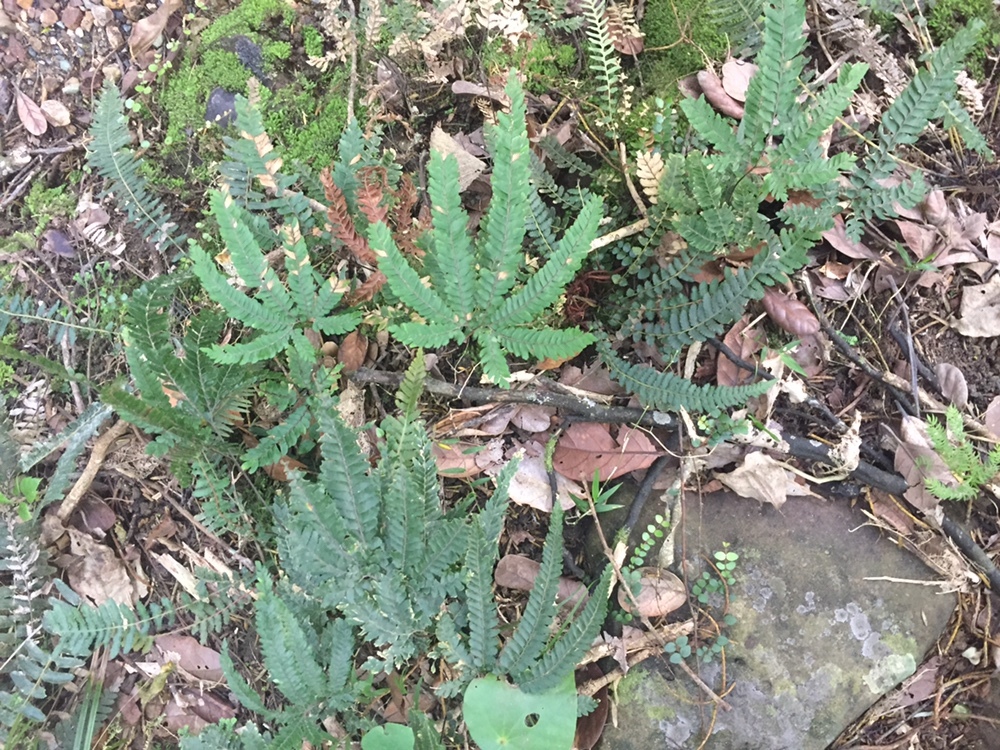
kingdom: Plantae
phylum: Tracheophyta
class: Polypodiopsida
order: Polypodiales
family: Pteridaceae
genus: Adiantum
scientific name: Adiantum hispidulum
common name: Rough maidenhair
